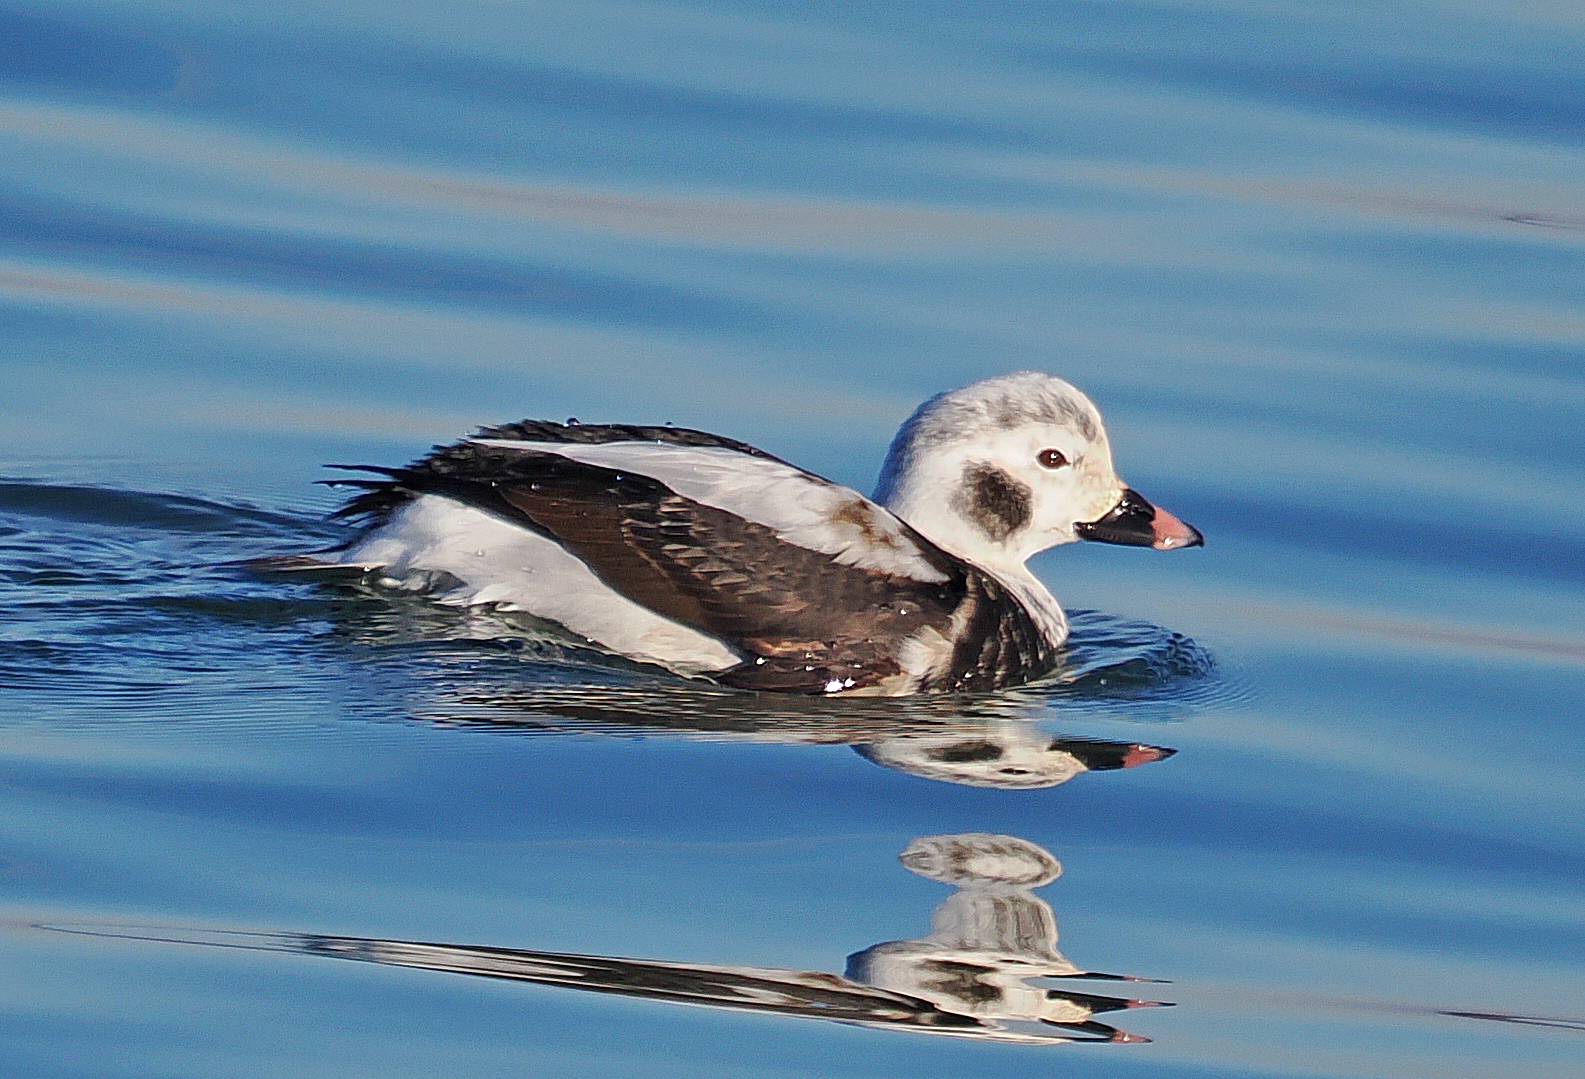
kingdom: Animalia
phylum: Chordata
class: Aves
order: Anseriformes
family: Anatidae
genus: Clangula
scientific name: Clangula hyemalis
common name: Long-tailed duck
